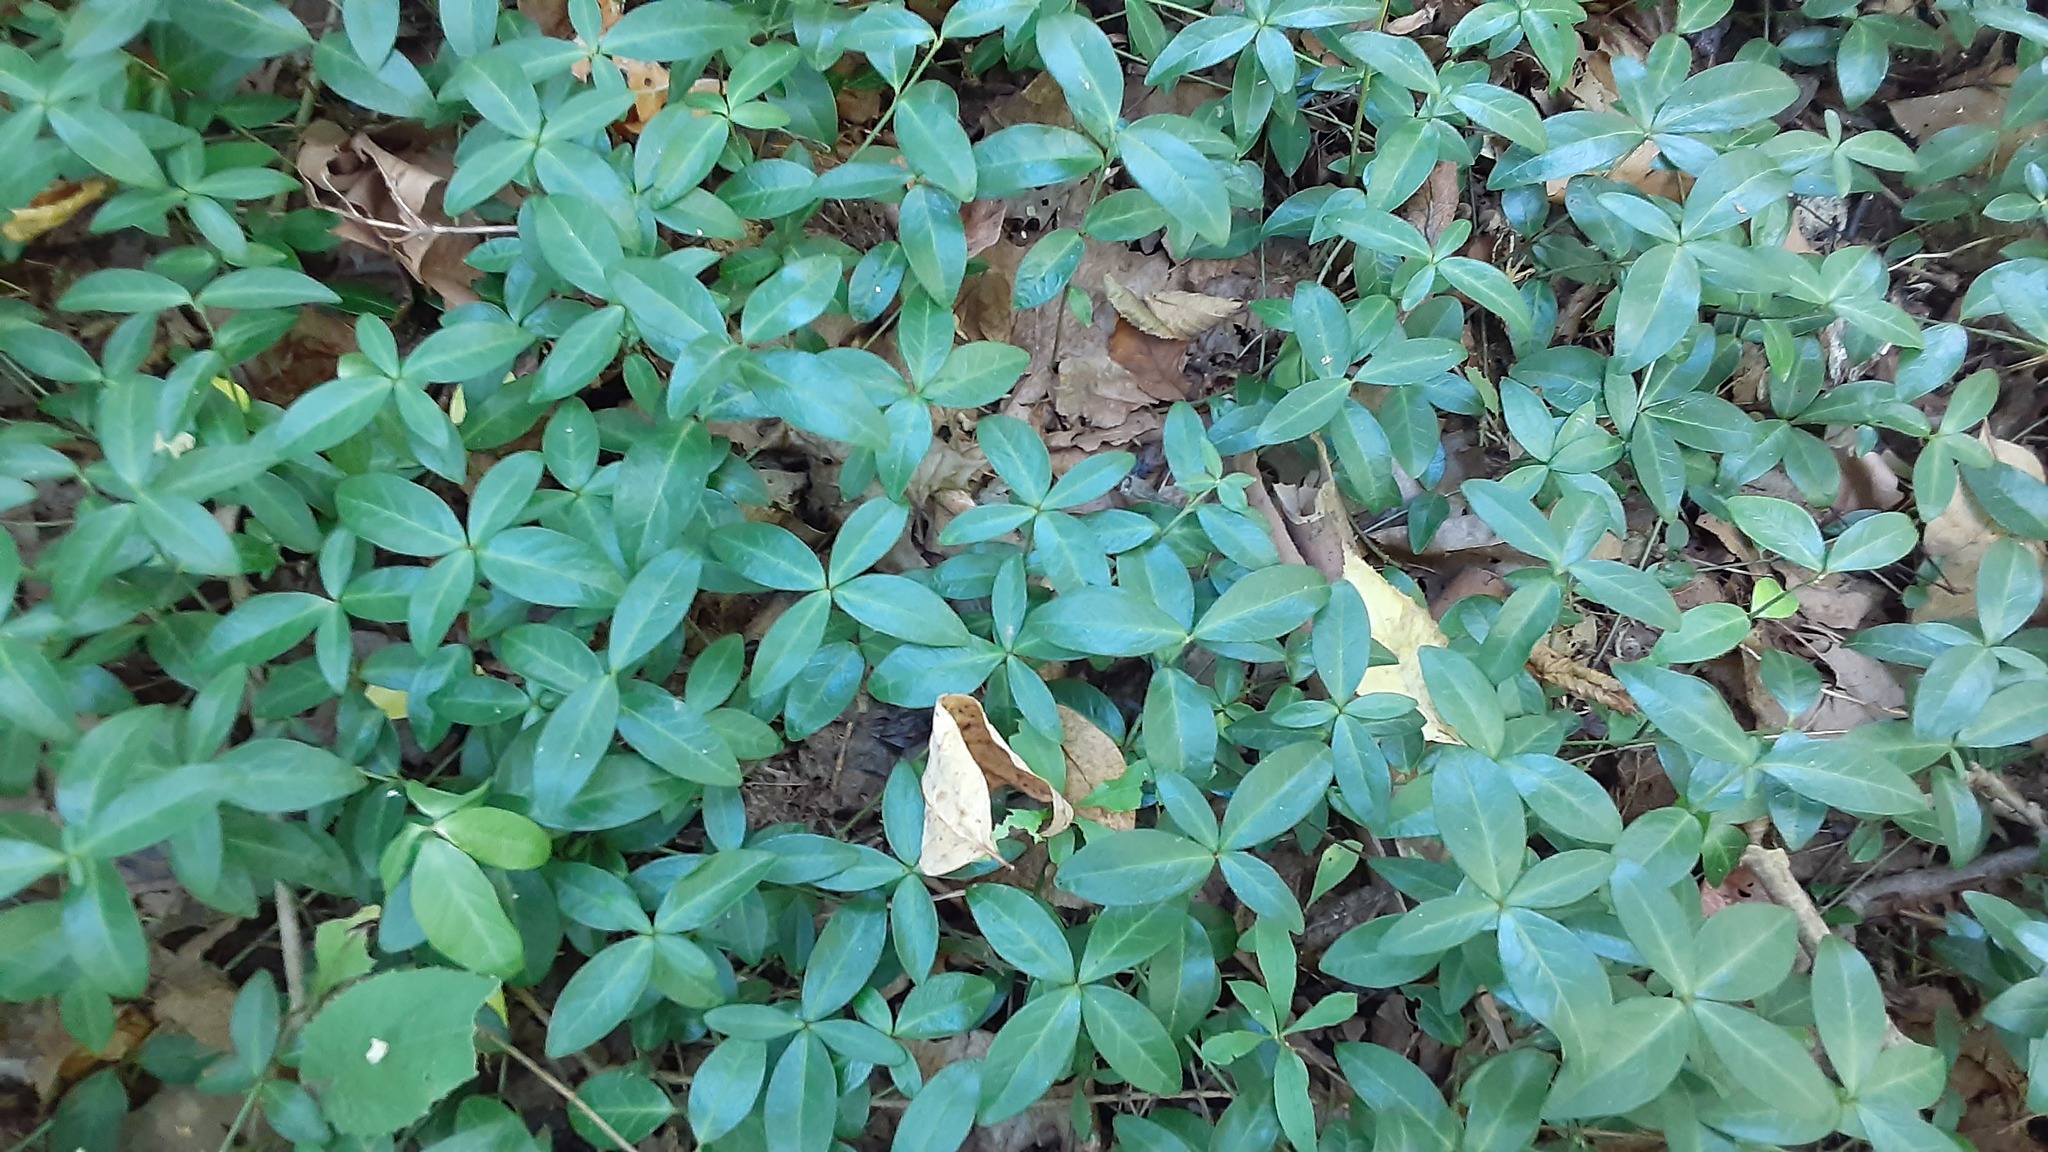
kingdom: Plantae
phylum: Tracheophyta
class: Magnoliopsida
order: Gentianales
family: Apocynaceae
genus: Vinca
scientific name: Vinca minor
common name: Lesser periwinkle
